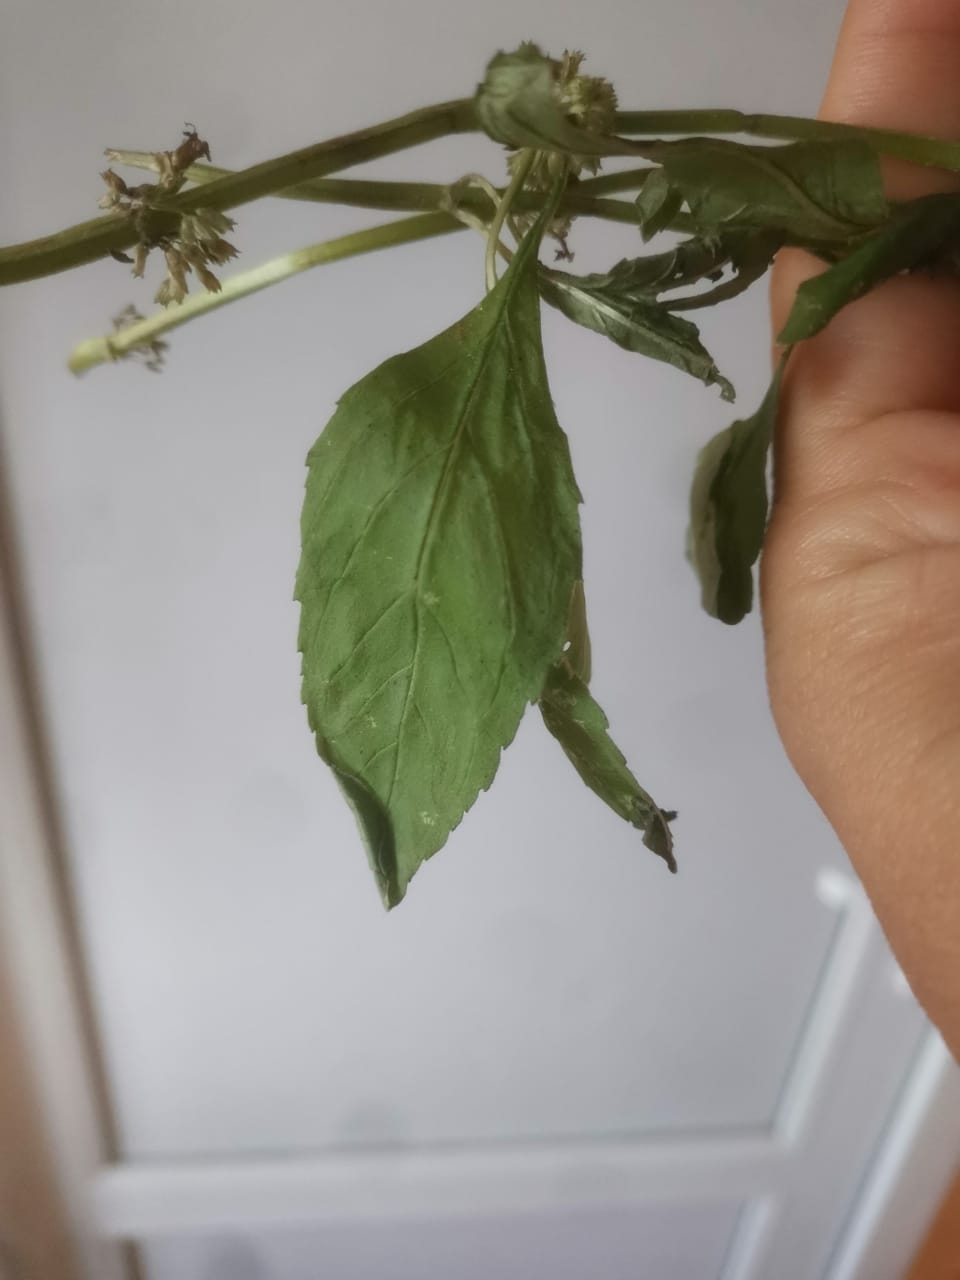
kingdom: Plantae
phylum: Tracheophyta
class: Magnoliopsida
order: Lamiales
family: Lamiaceae
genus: Mentha
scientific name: Mentha arvensis
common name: Corn mint
